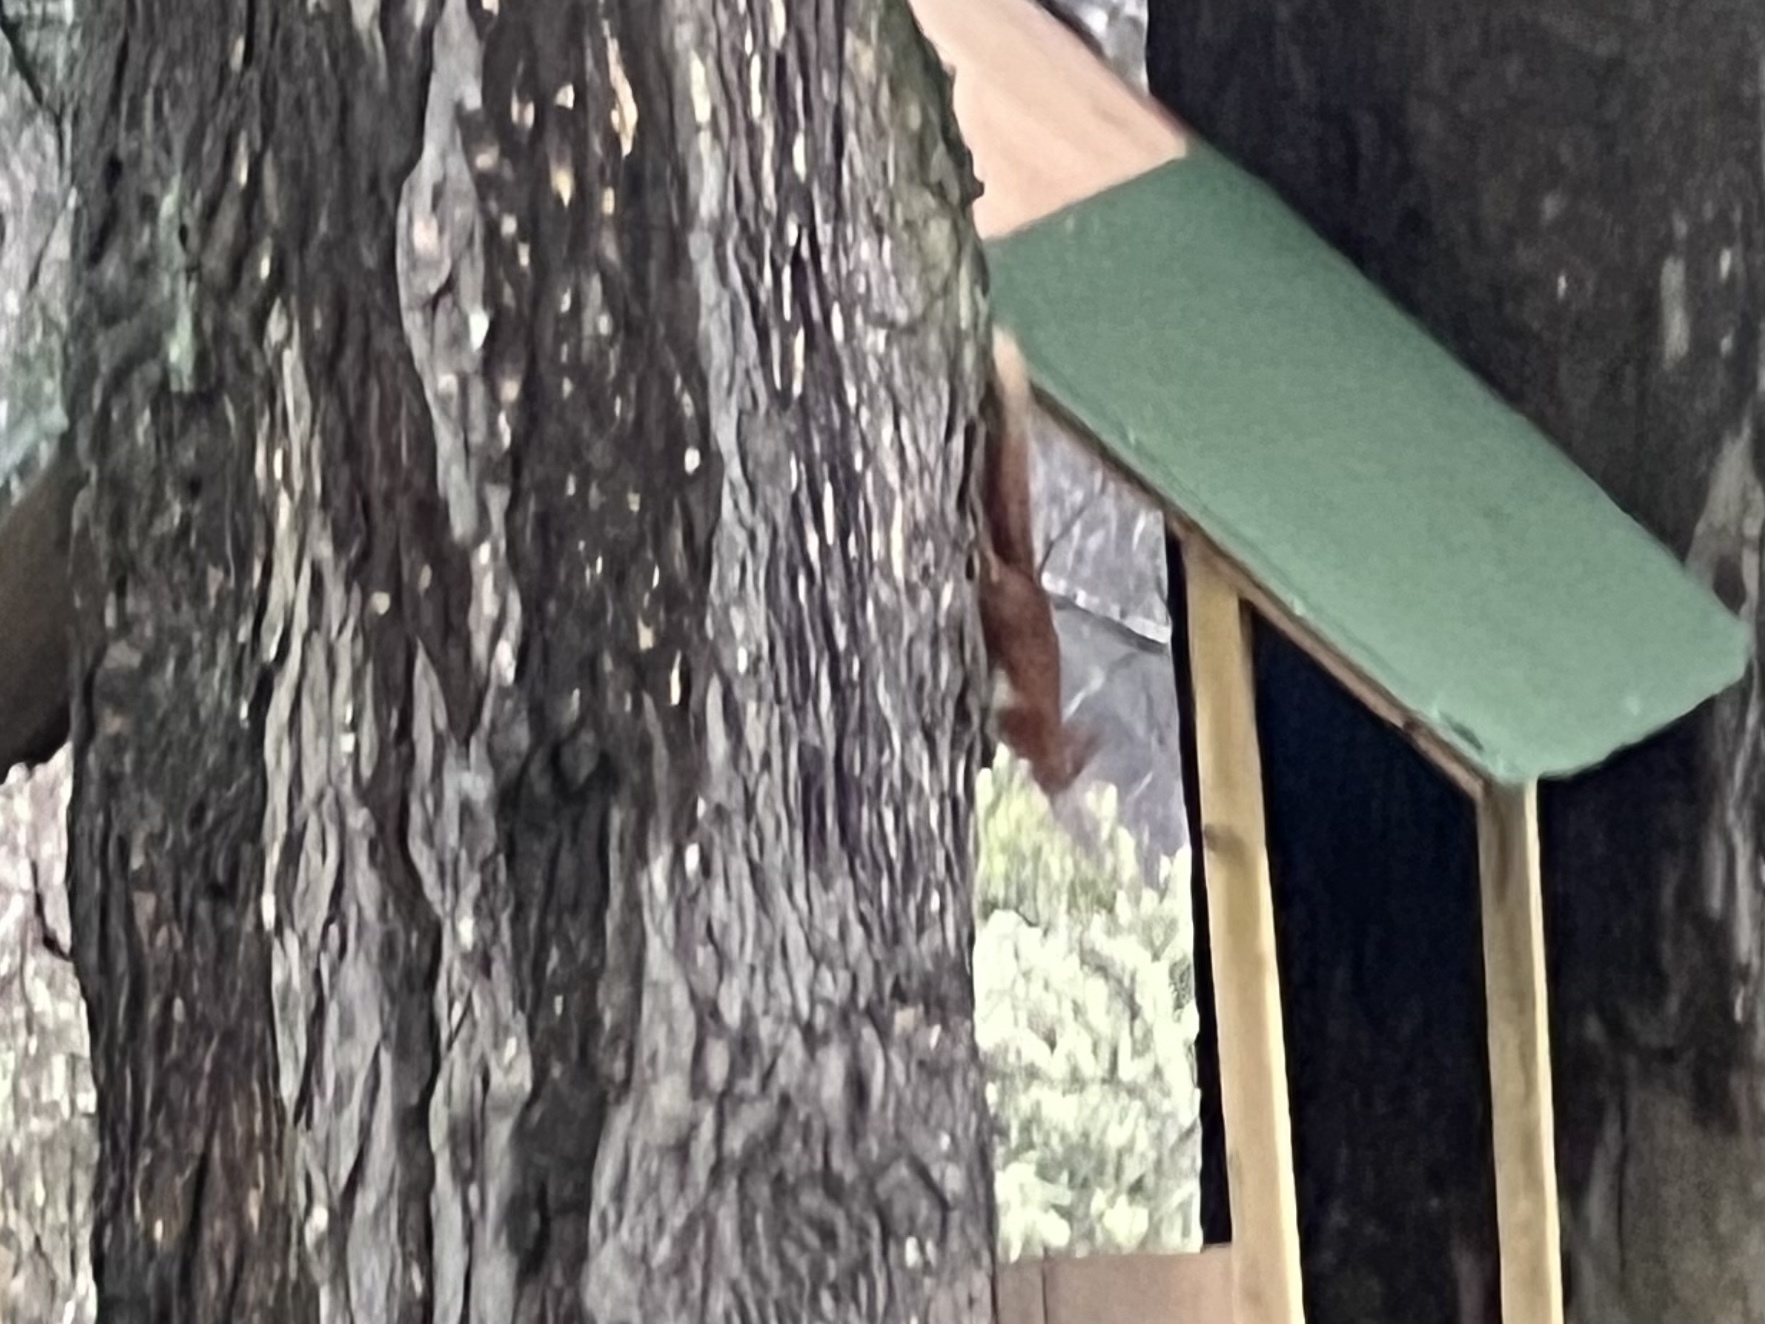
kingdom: Animalia
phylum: Chordata
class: Mammalia
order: Rodentia
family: Sciuridae
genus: Sciurus
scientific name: Sciurus vulgaris
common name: Eurasian red squirrel
